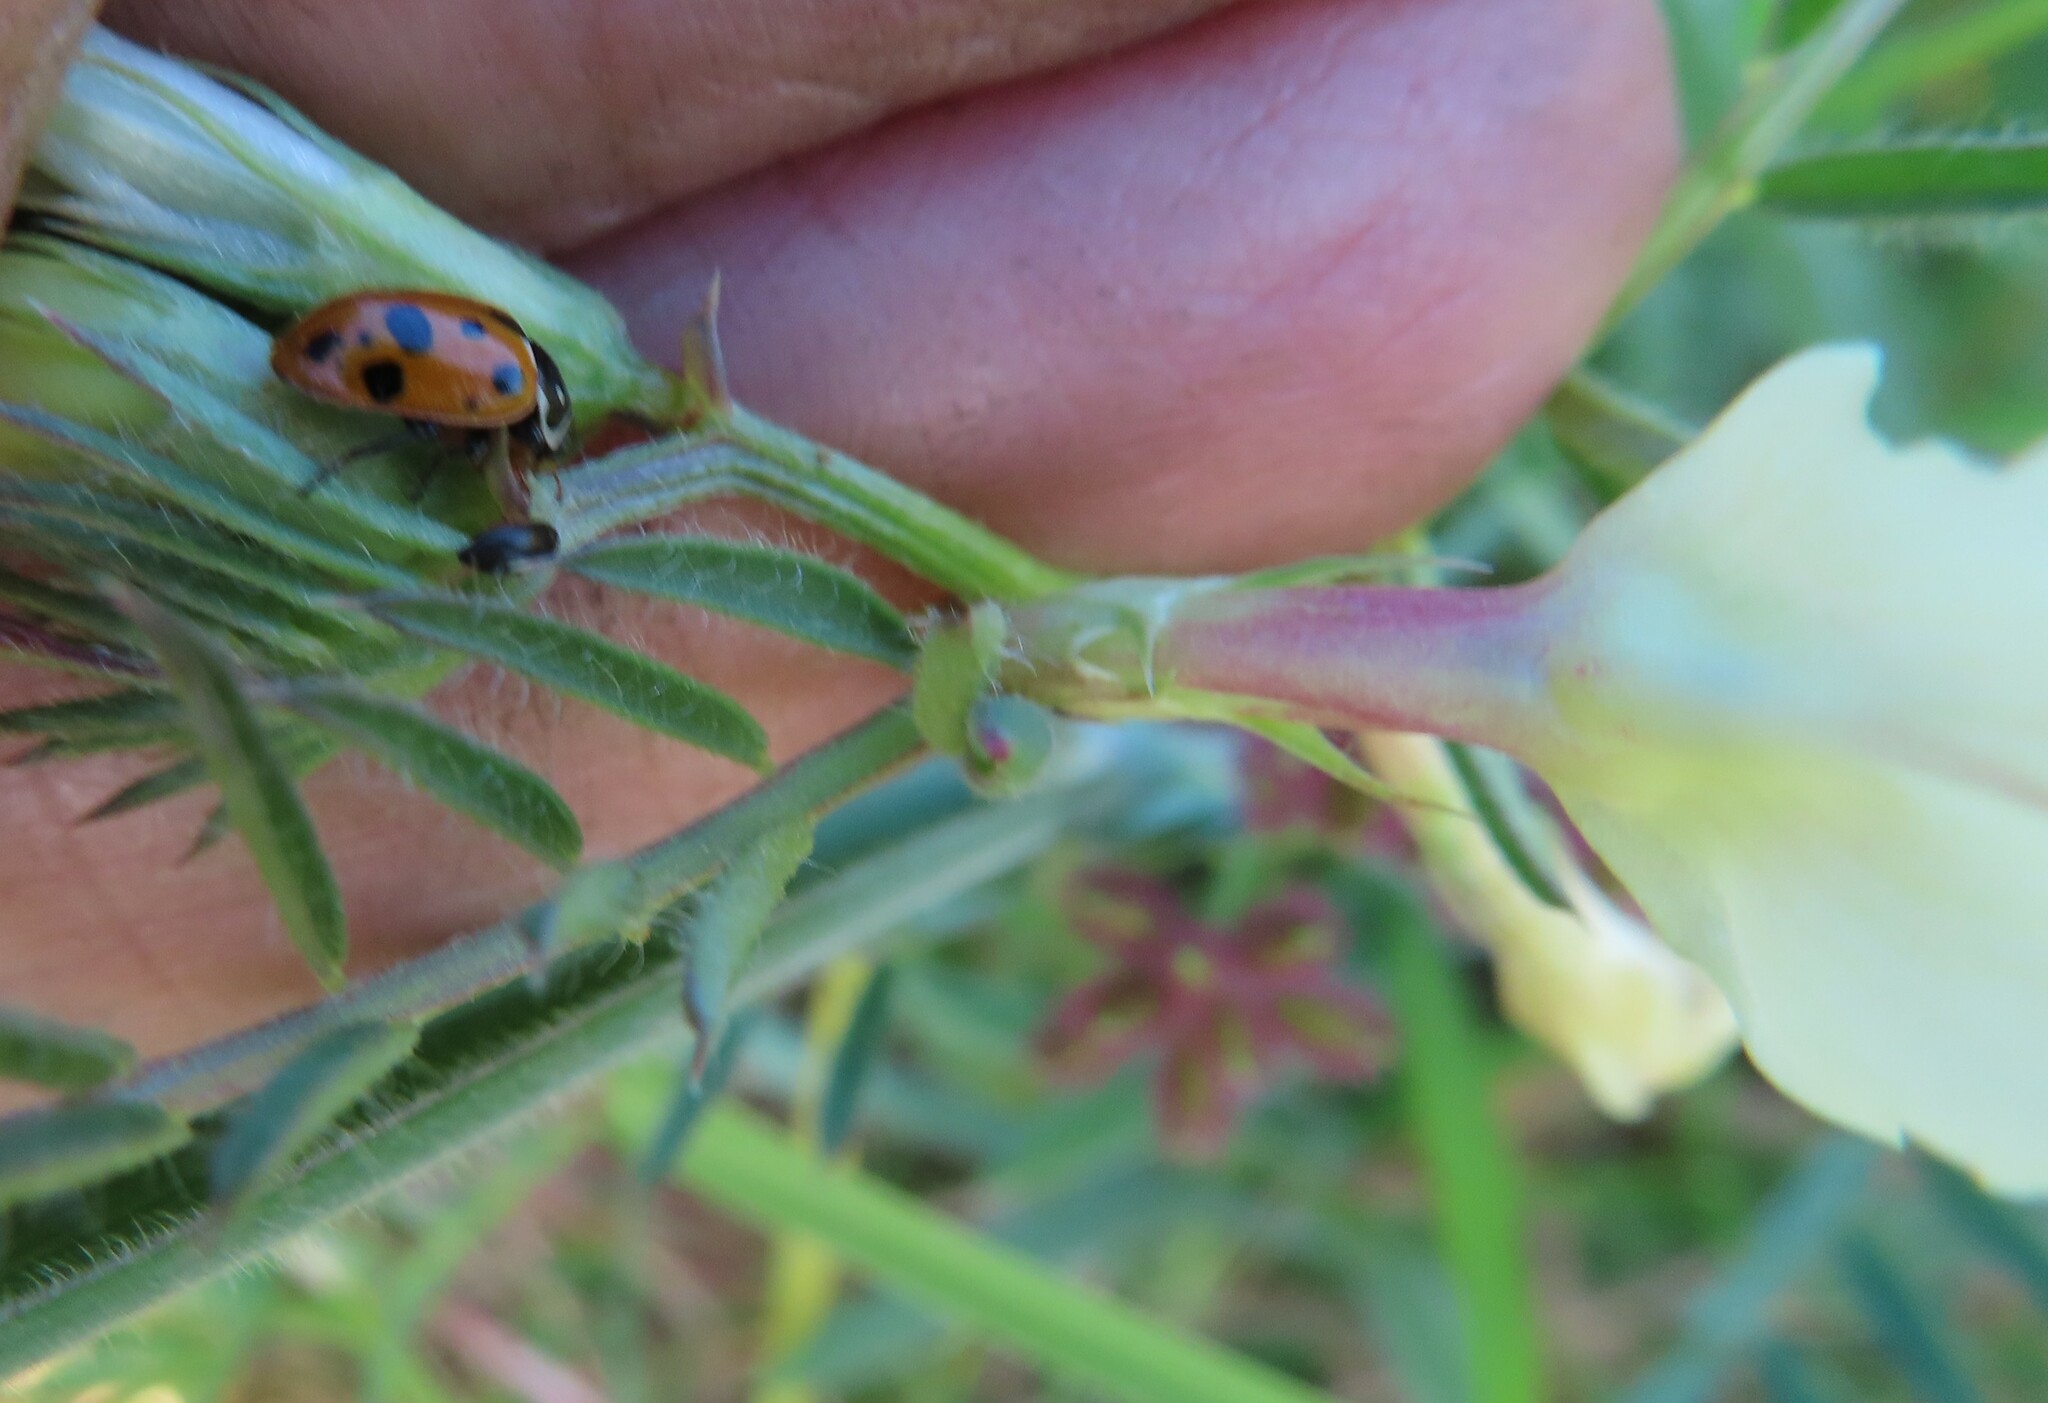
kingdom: Animalia
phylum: Arthropoda
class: Insecta
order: Coleoptera
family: Coccinellidae
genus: Hippodamia
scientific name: Hippodamia variegata
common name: Ladybird beetle
